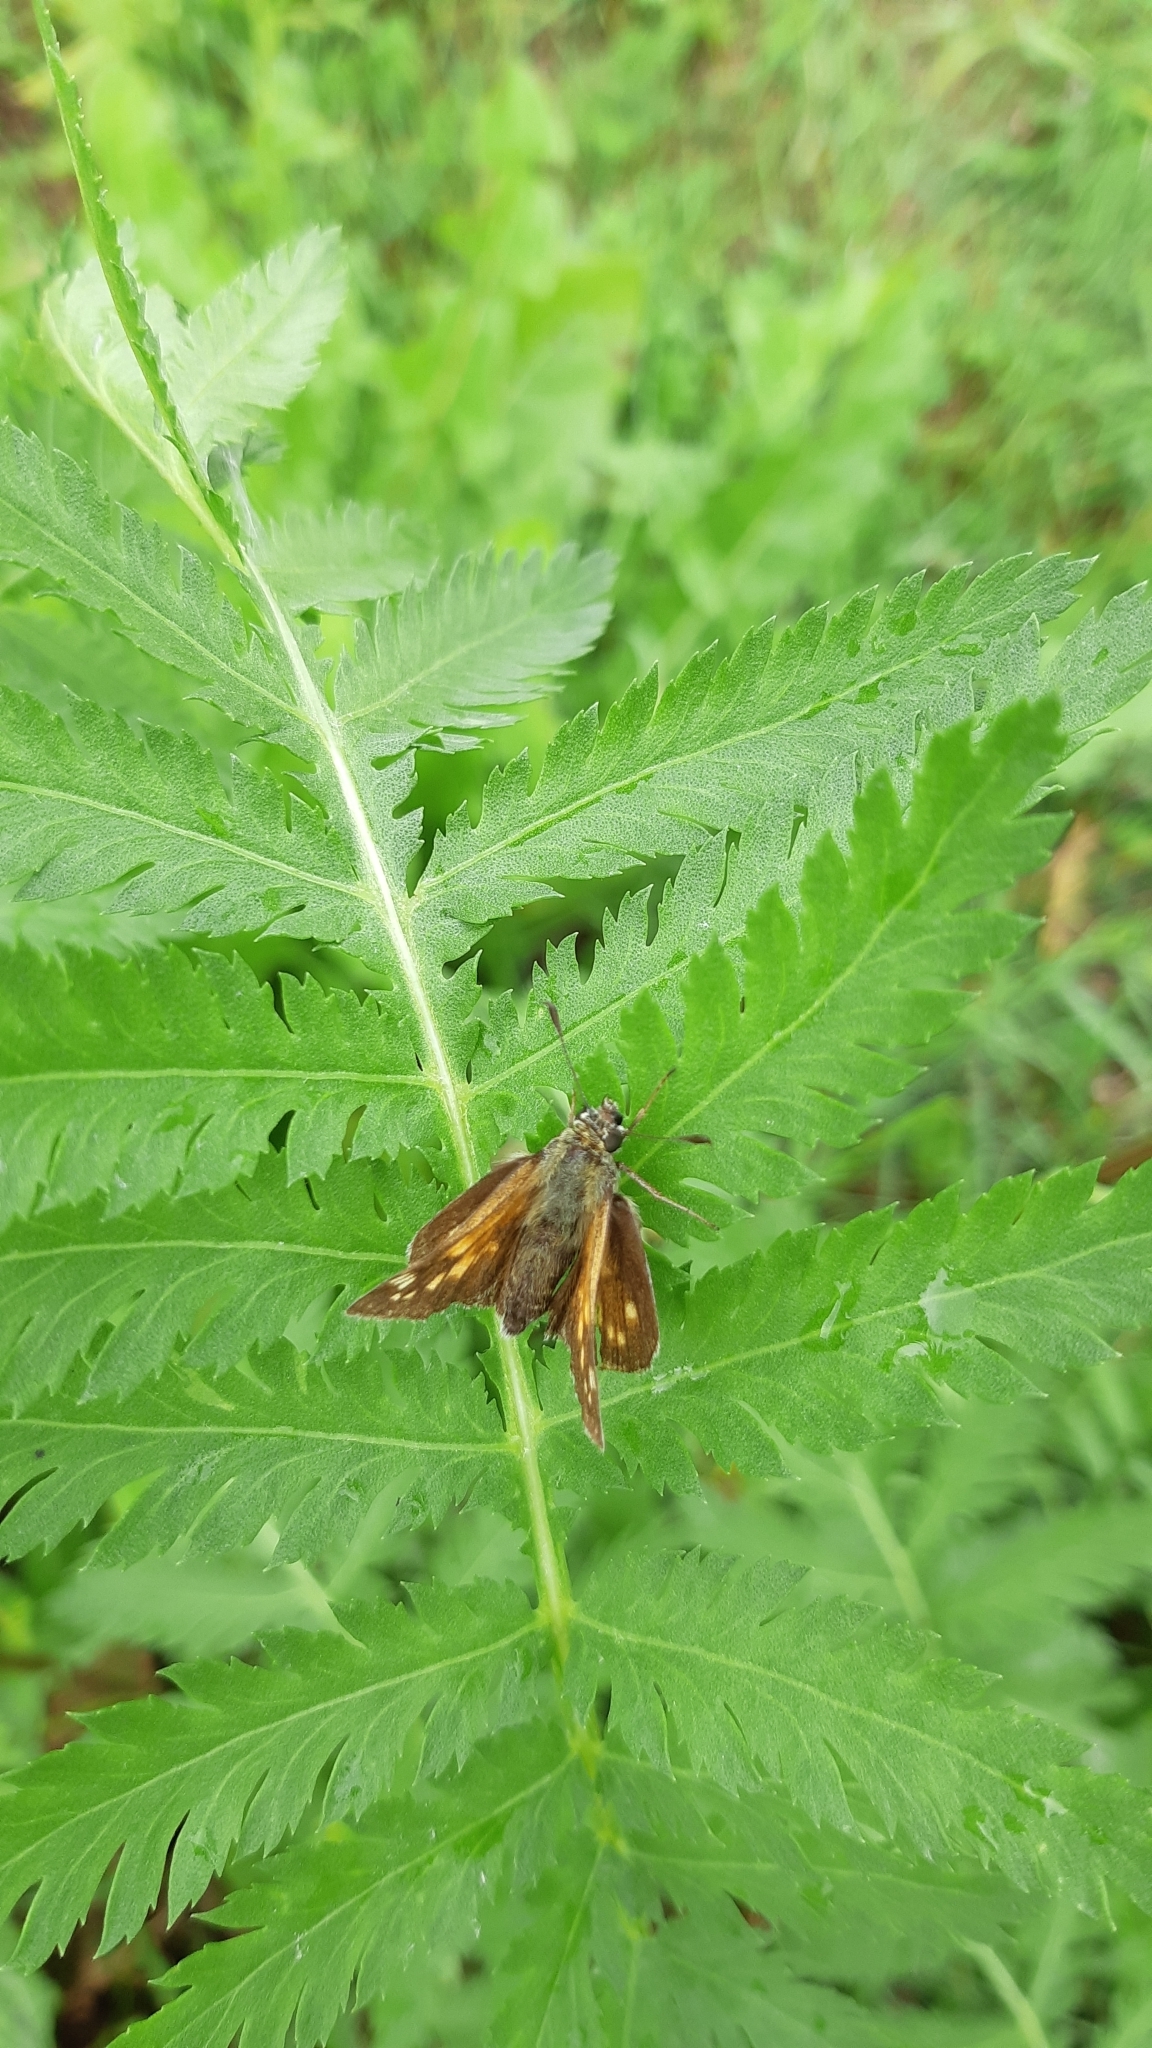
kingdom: Animalia
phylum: Arthropoda
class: Insecta
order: Lepidoptera
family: Hesperiidae
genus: Ochlodes
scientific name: Ochlodes venata
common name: Large skipper
